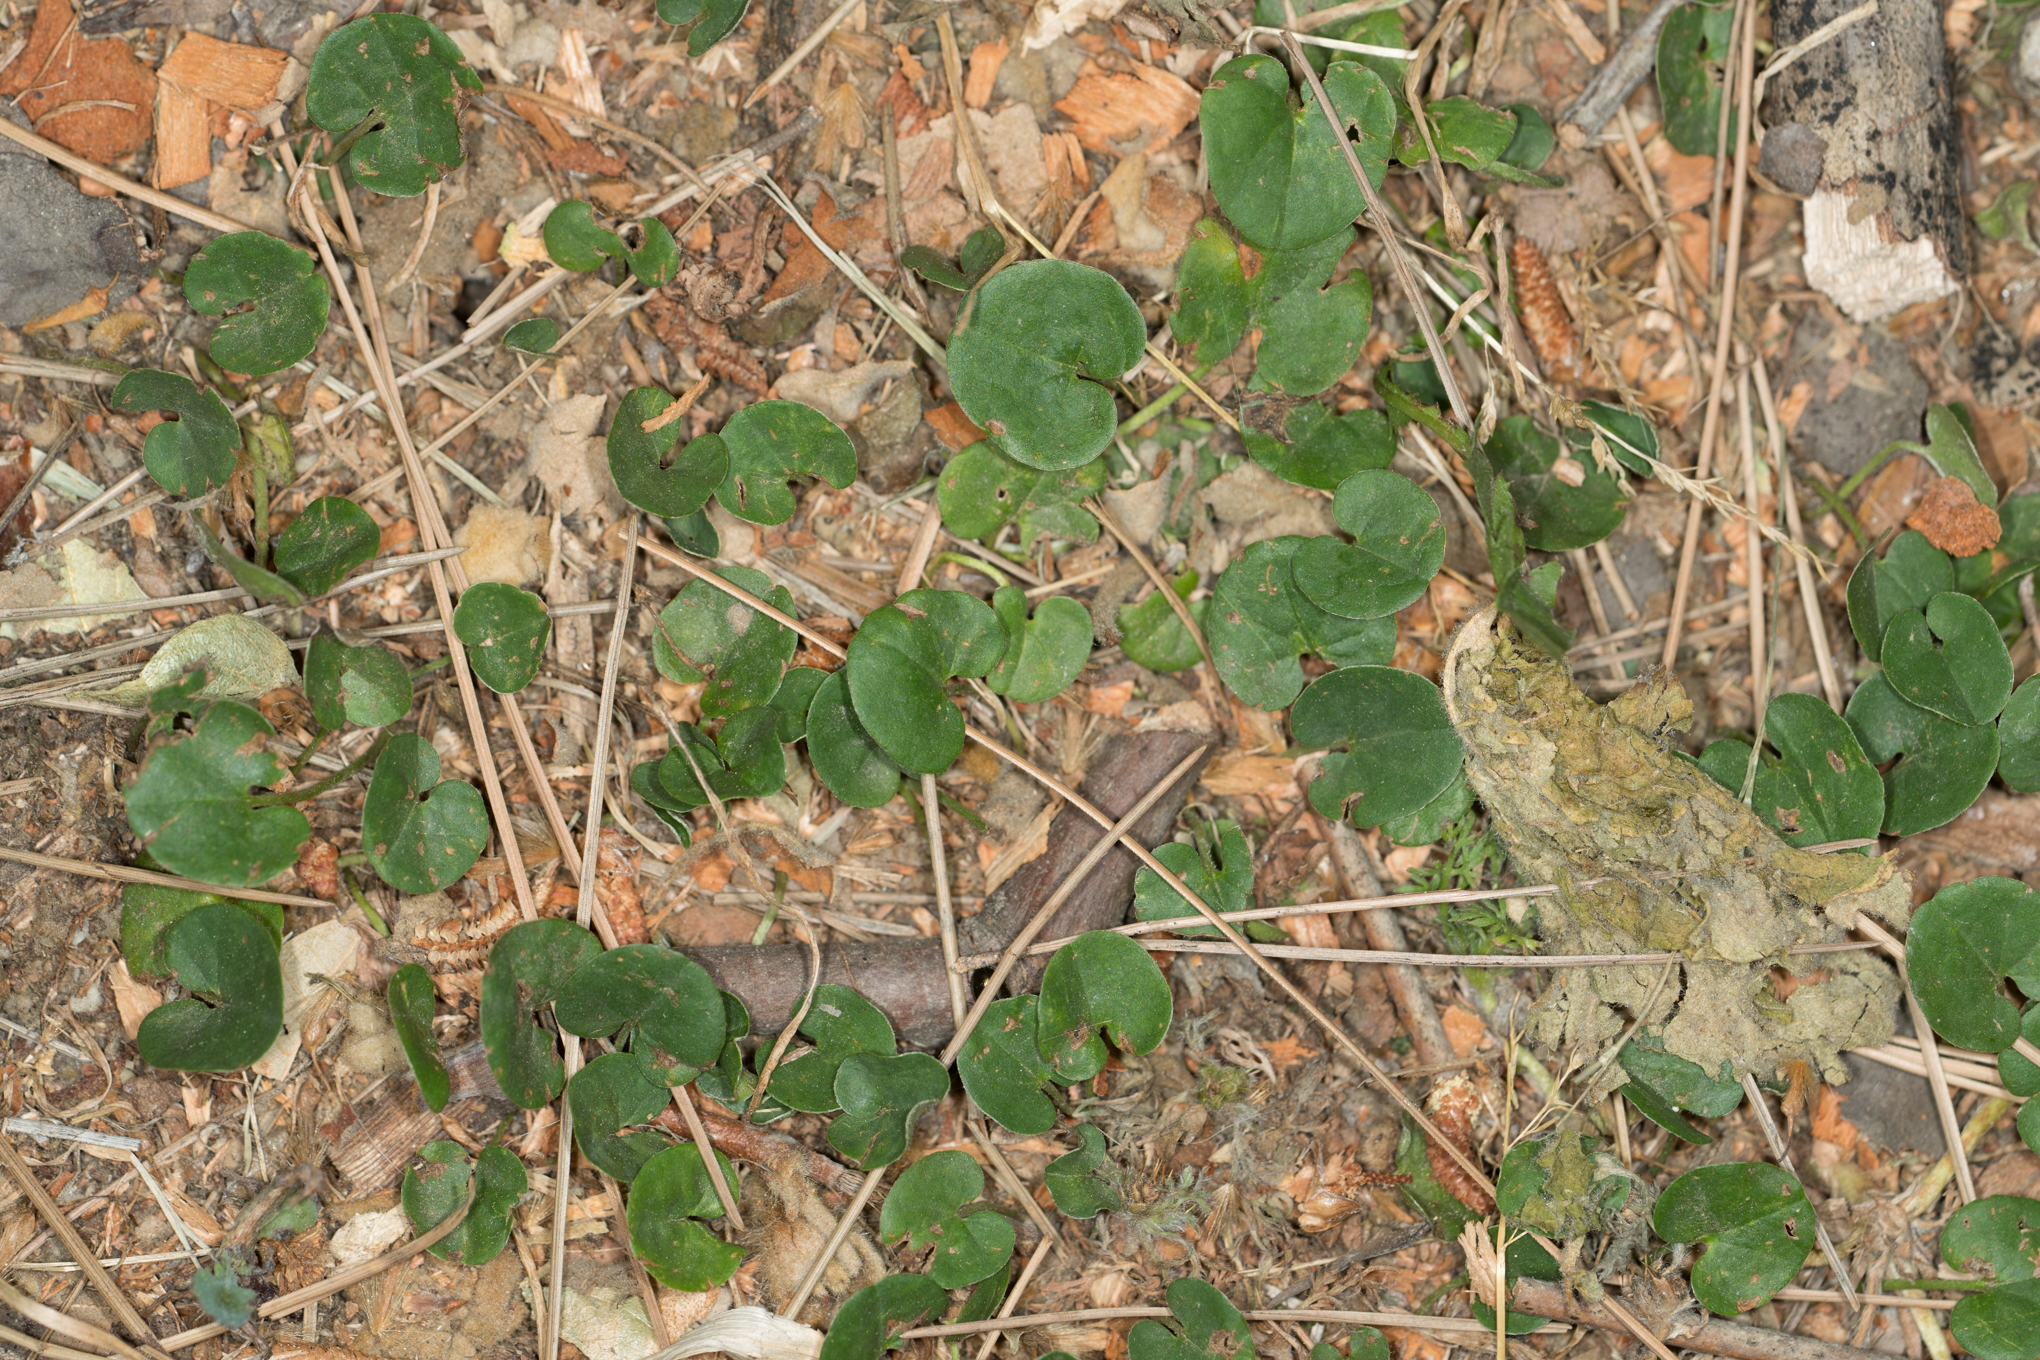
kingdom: Plantae
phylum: Tracheophyta
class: Magnoliopsida
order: Solanales
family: Convolvulaceae
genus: Dichondra
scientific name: Dichondra micrantha
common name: Kidneyweed
